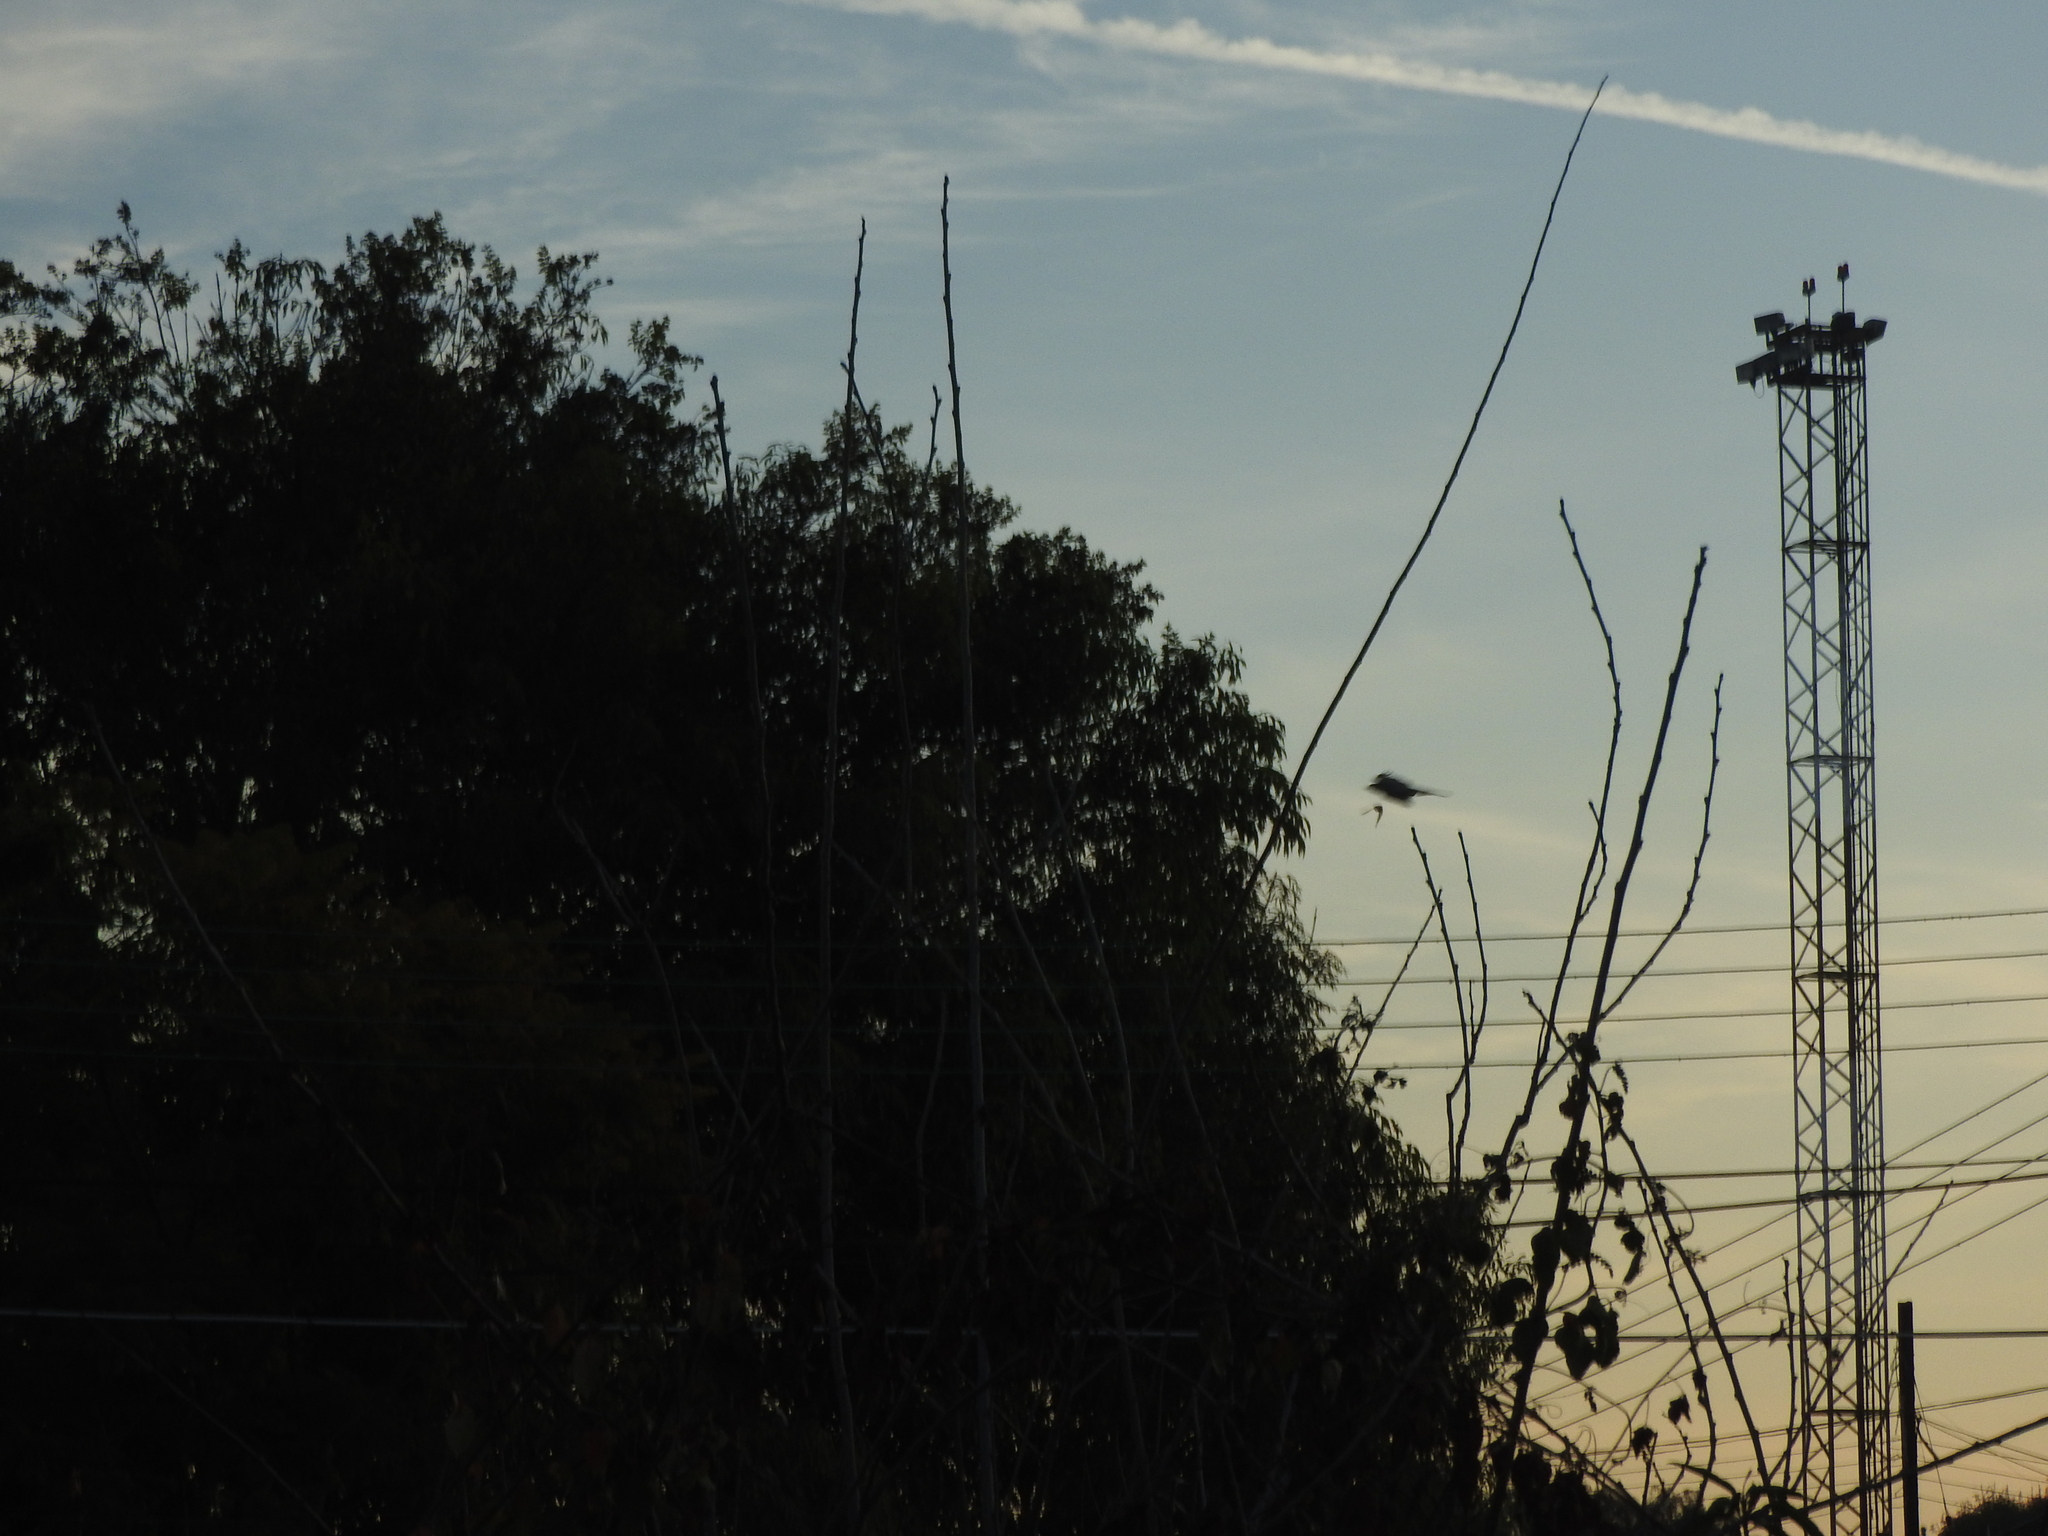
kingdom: Animalia
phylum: Chordata
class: Aves
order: Accipitriformes
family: Accipitridae
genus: Accipiter
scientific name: Accipiter cooperii
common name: Cooper's hawk
